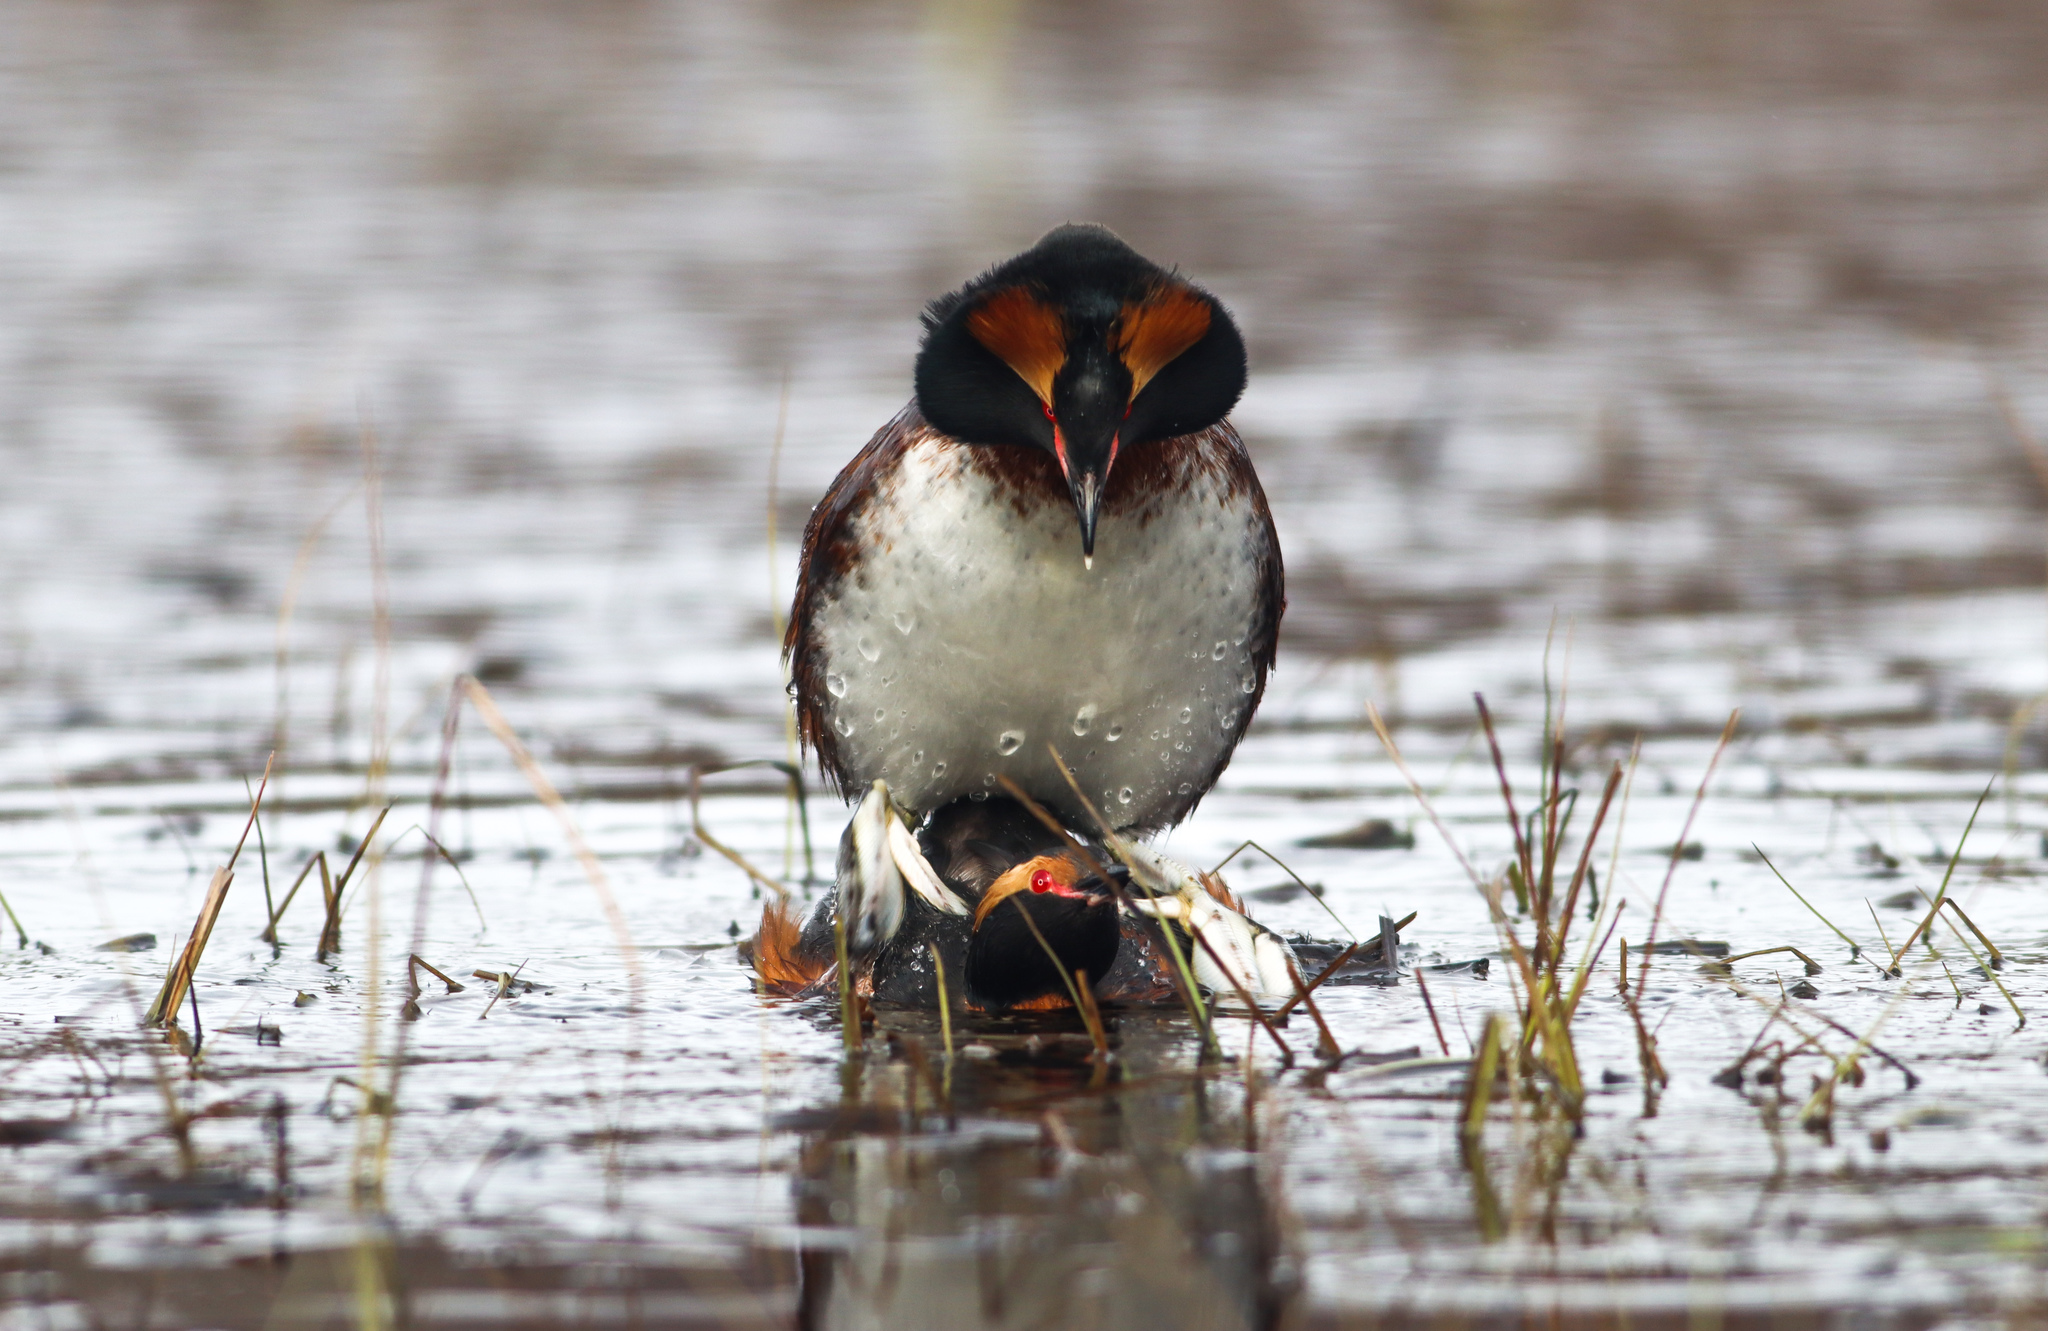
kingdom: Animalia
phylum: Chordata
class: Aves
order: Podicipediformes
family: Podicipedidae
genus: Podiceps
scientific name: Podiceps auritus
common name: Horned grebe
